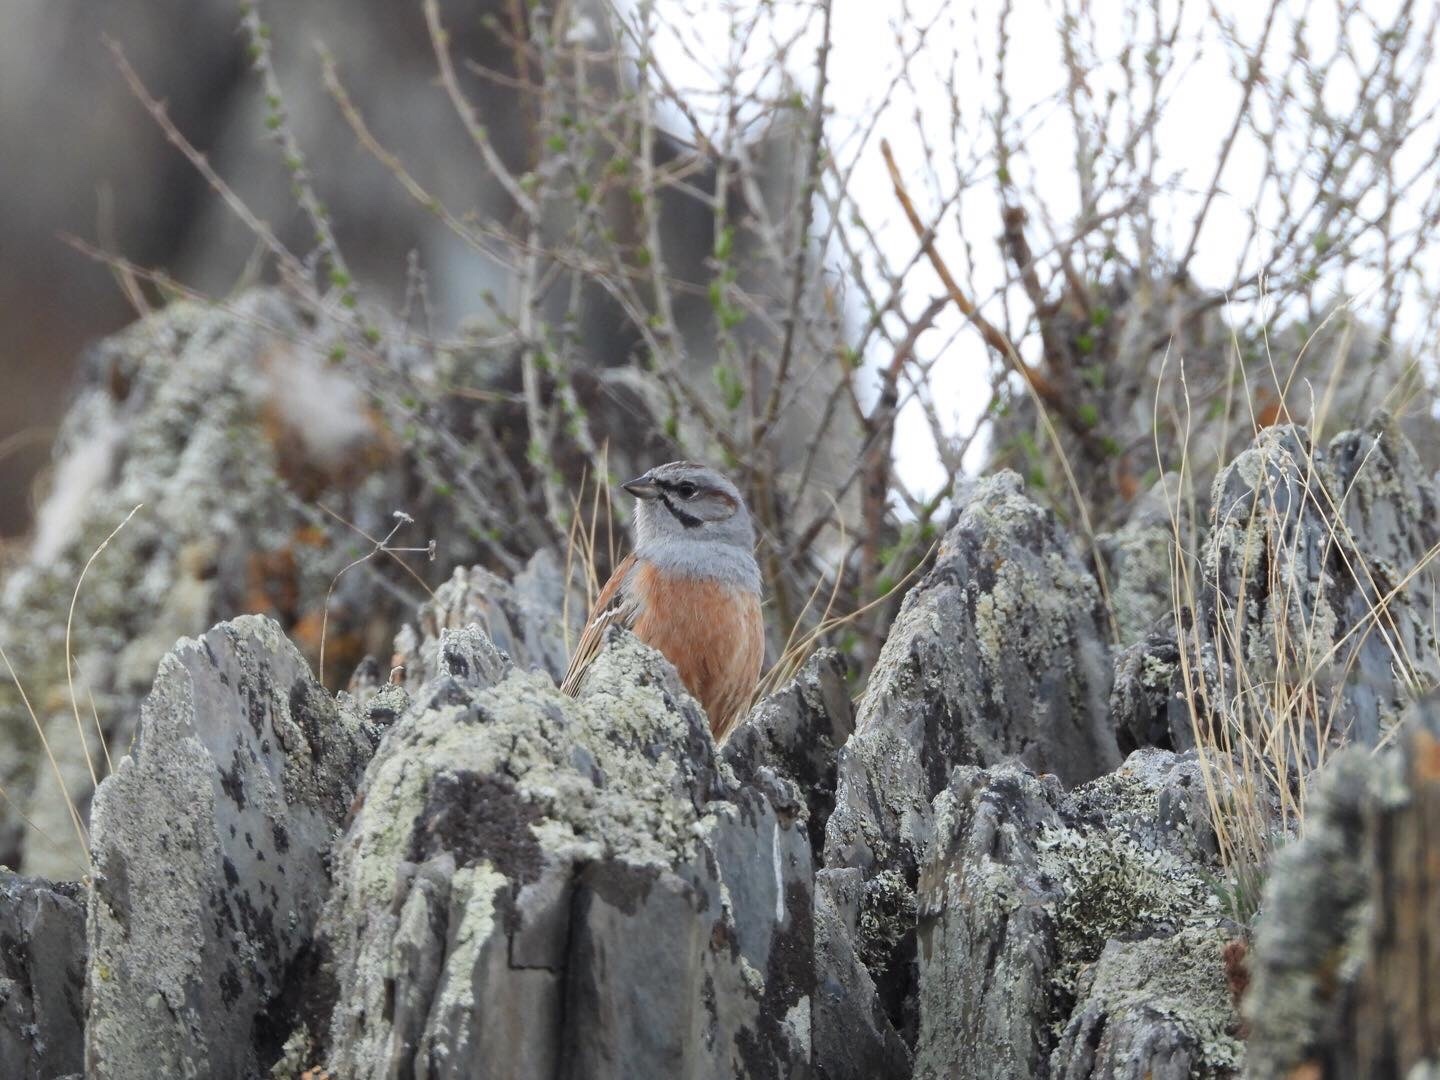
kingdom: Animalia
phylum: Chordata
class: Aves
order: Passeriformes
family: Emberizidae
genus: Emberiza
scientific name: Emberiza godlewskii
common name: Godlewski's bunting
